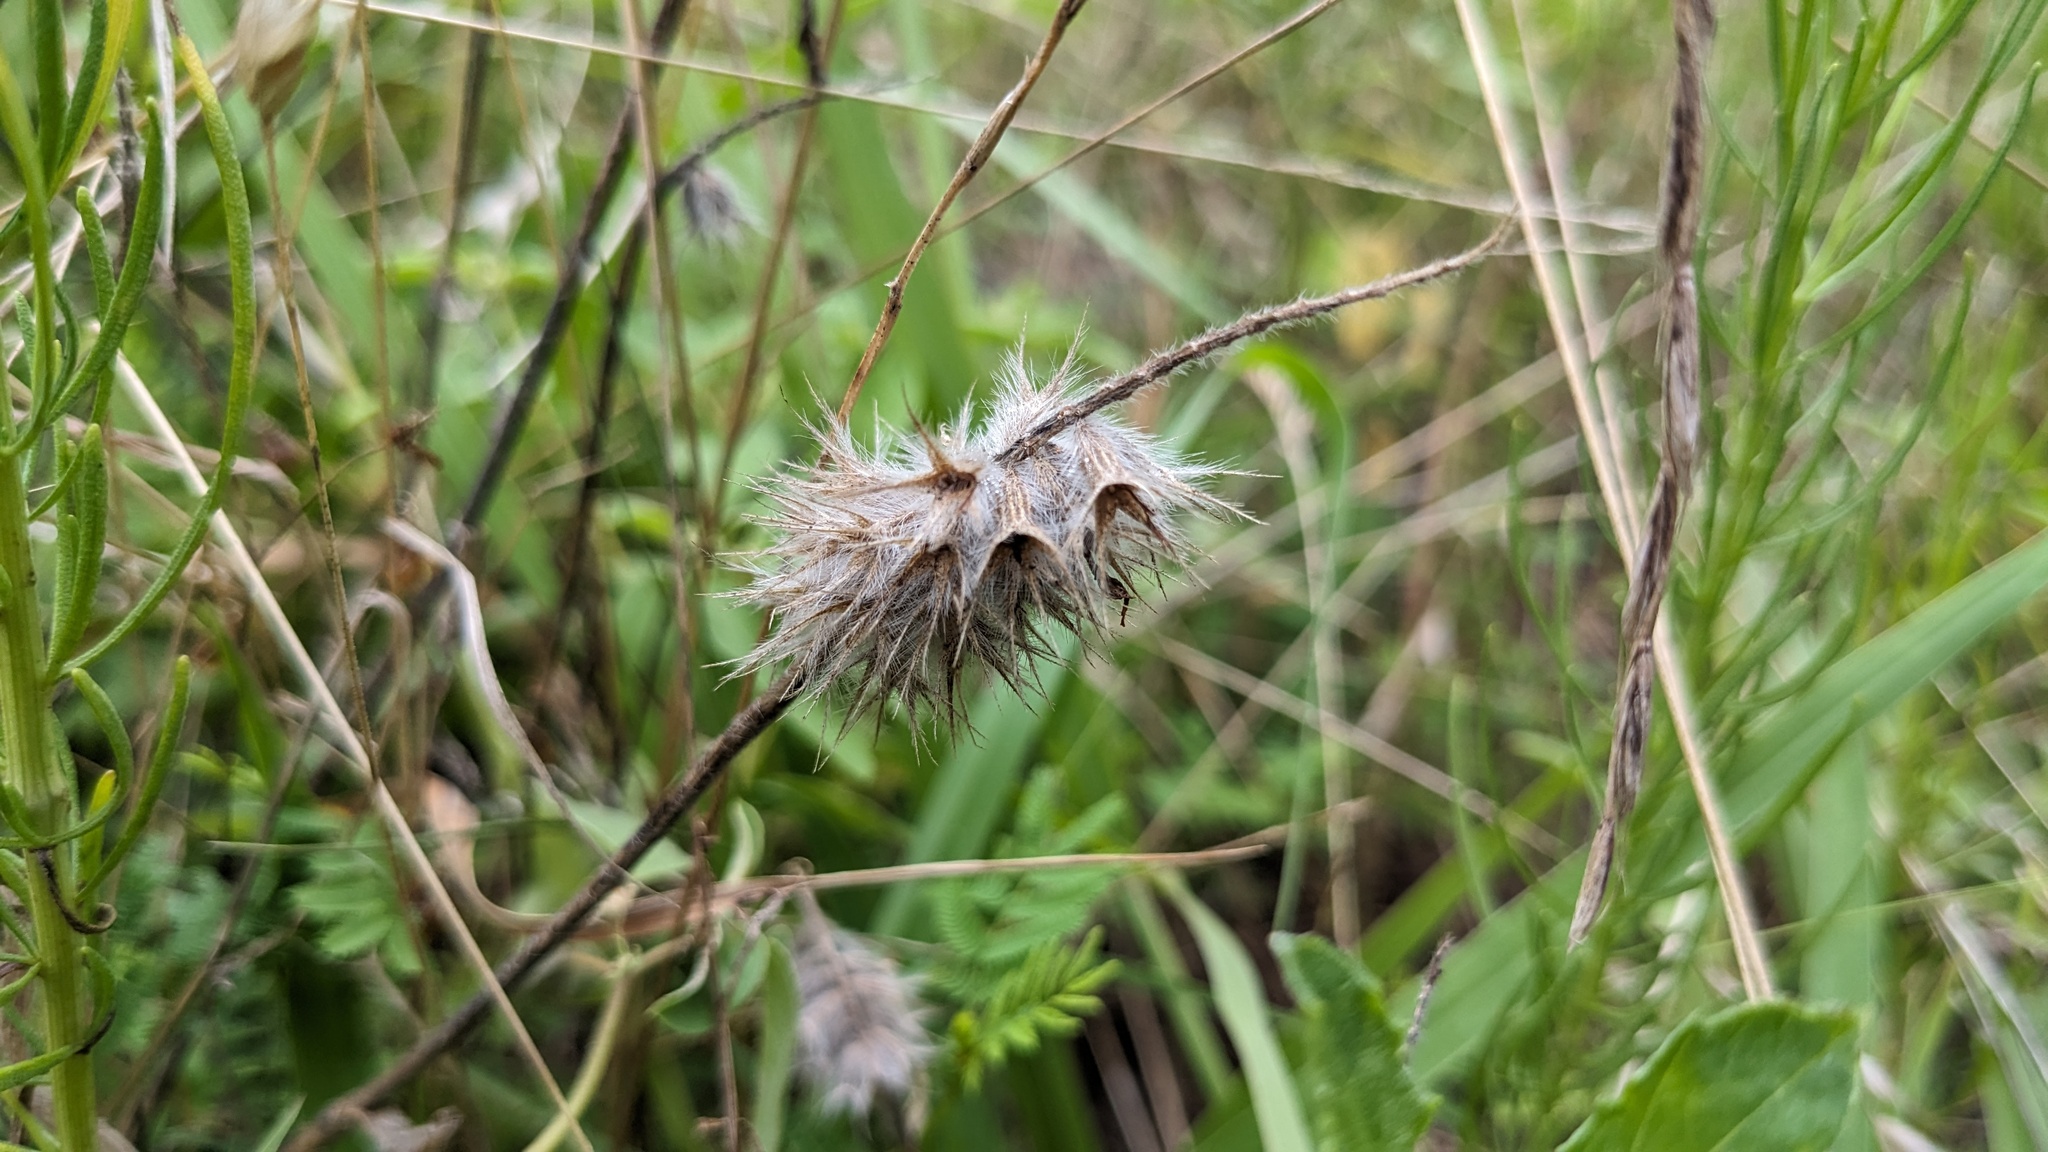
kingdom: Plantae
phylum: Tracheophyta
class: Magnoliopsida
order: Fabales
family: Fabaceae
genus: Trifolium
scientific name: Trifolium incarnatum
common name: Crimson clover
